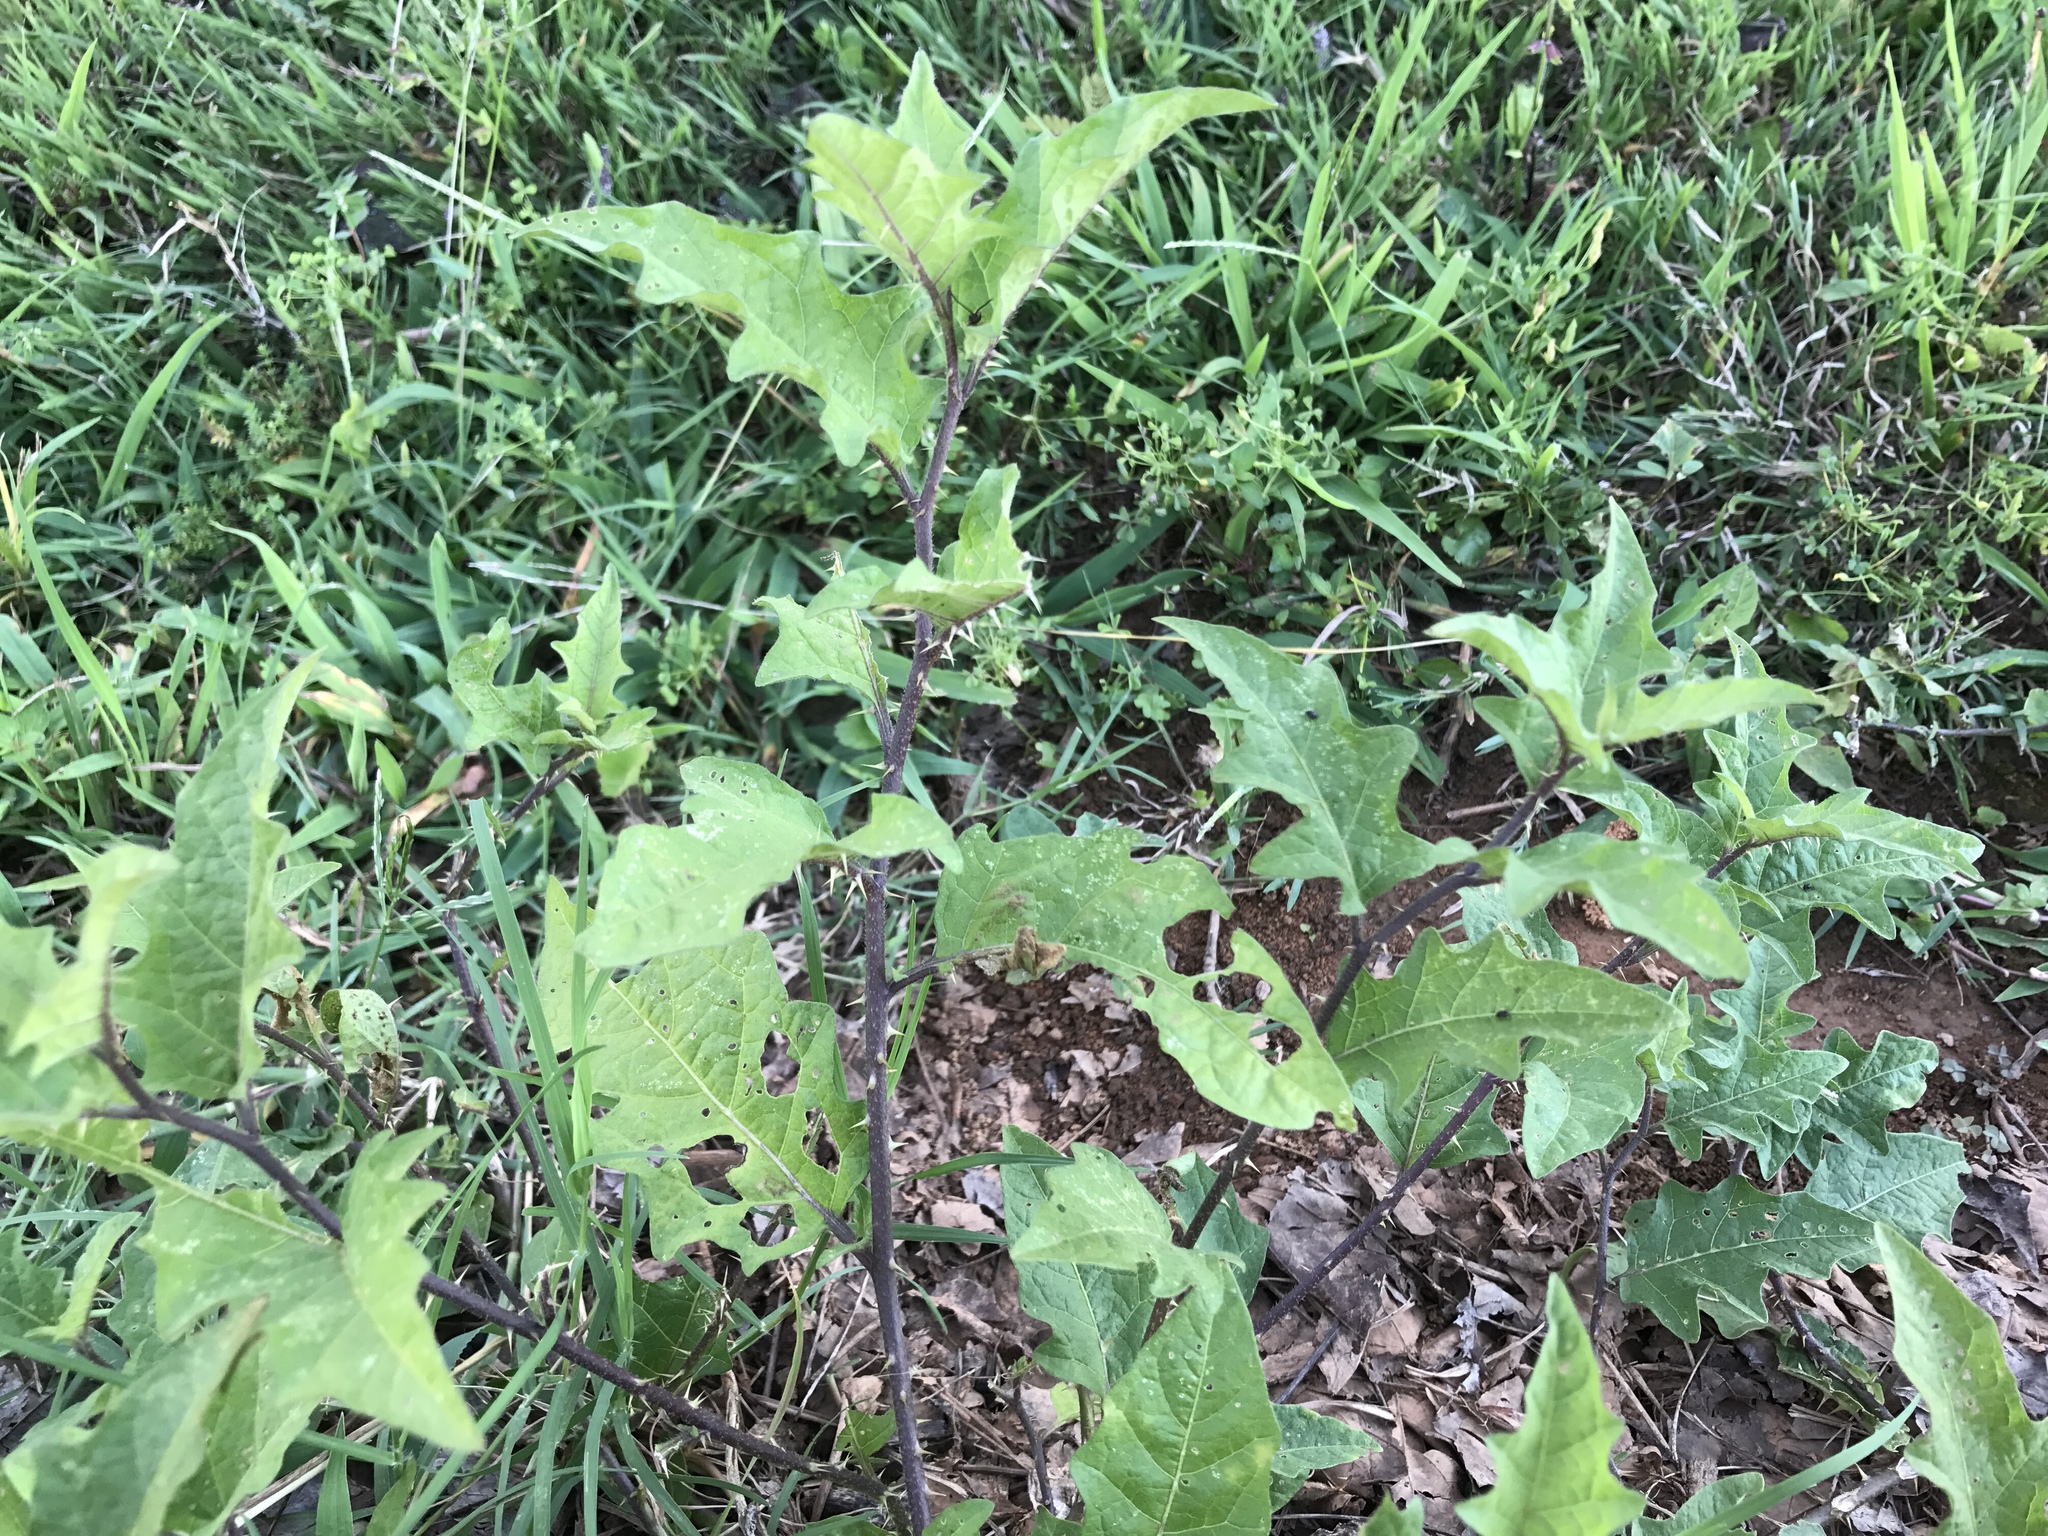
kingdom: Plantae
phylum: Tracheophyta
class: Magnoliopsida
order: Solanales
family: Solanaceae
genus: Solanum
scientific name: Solanum carolinense
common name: Horse-nettle
